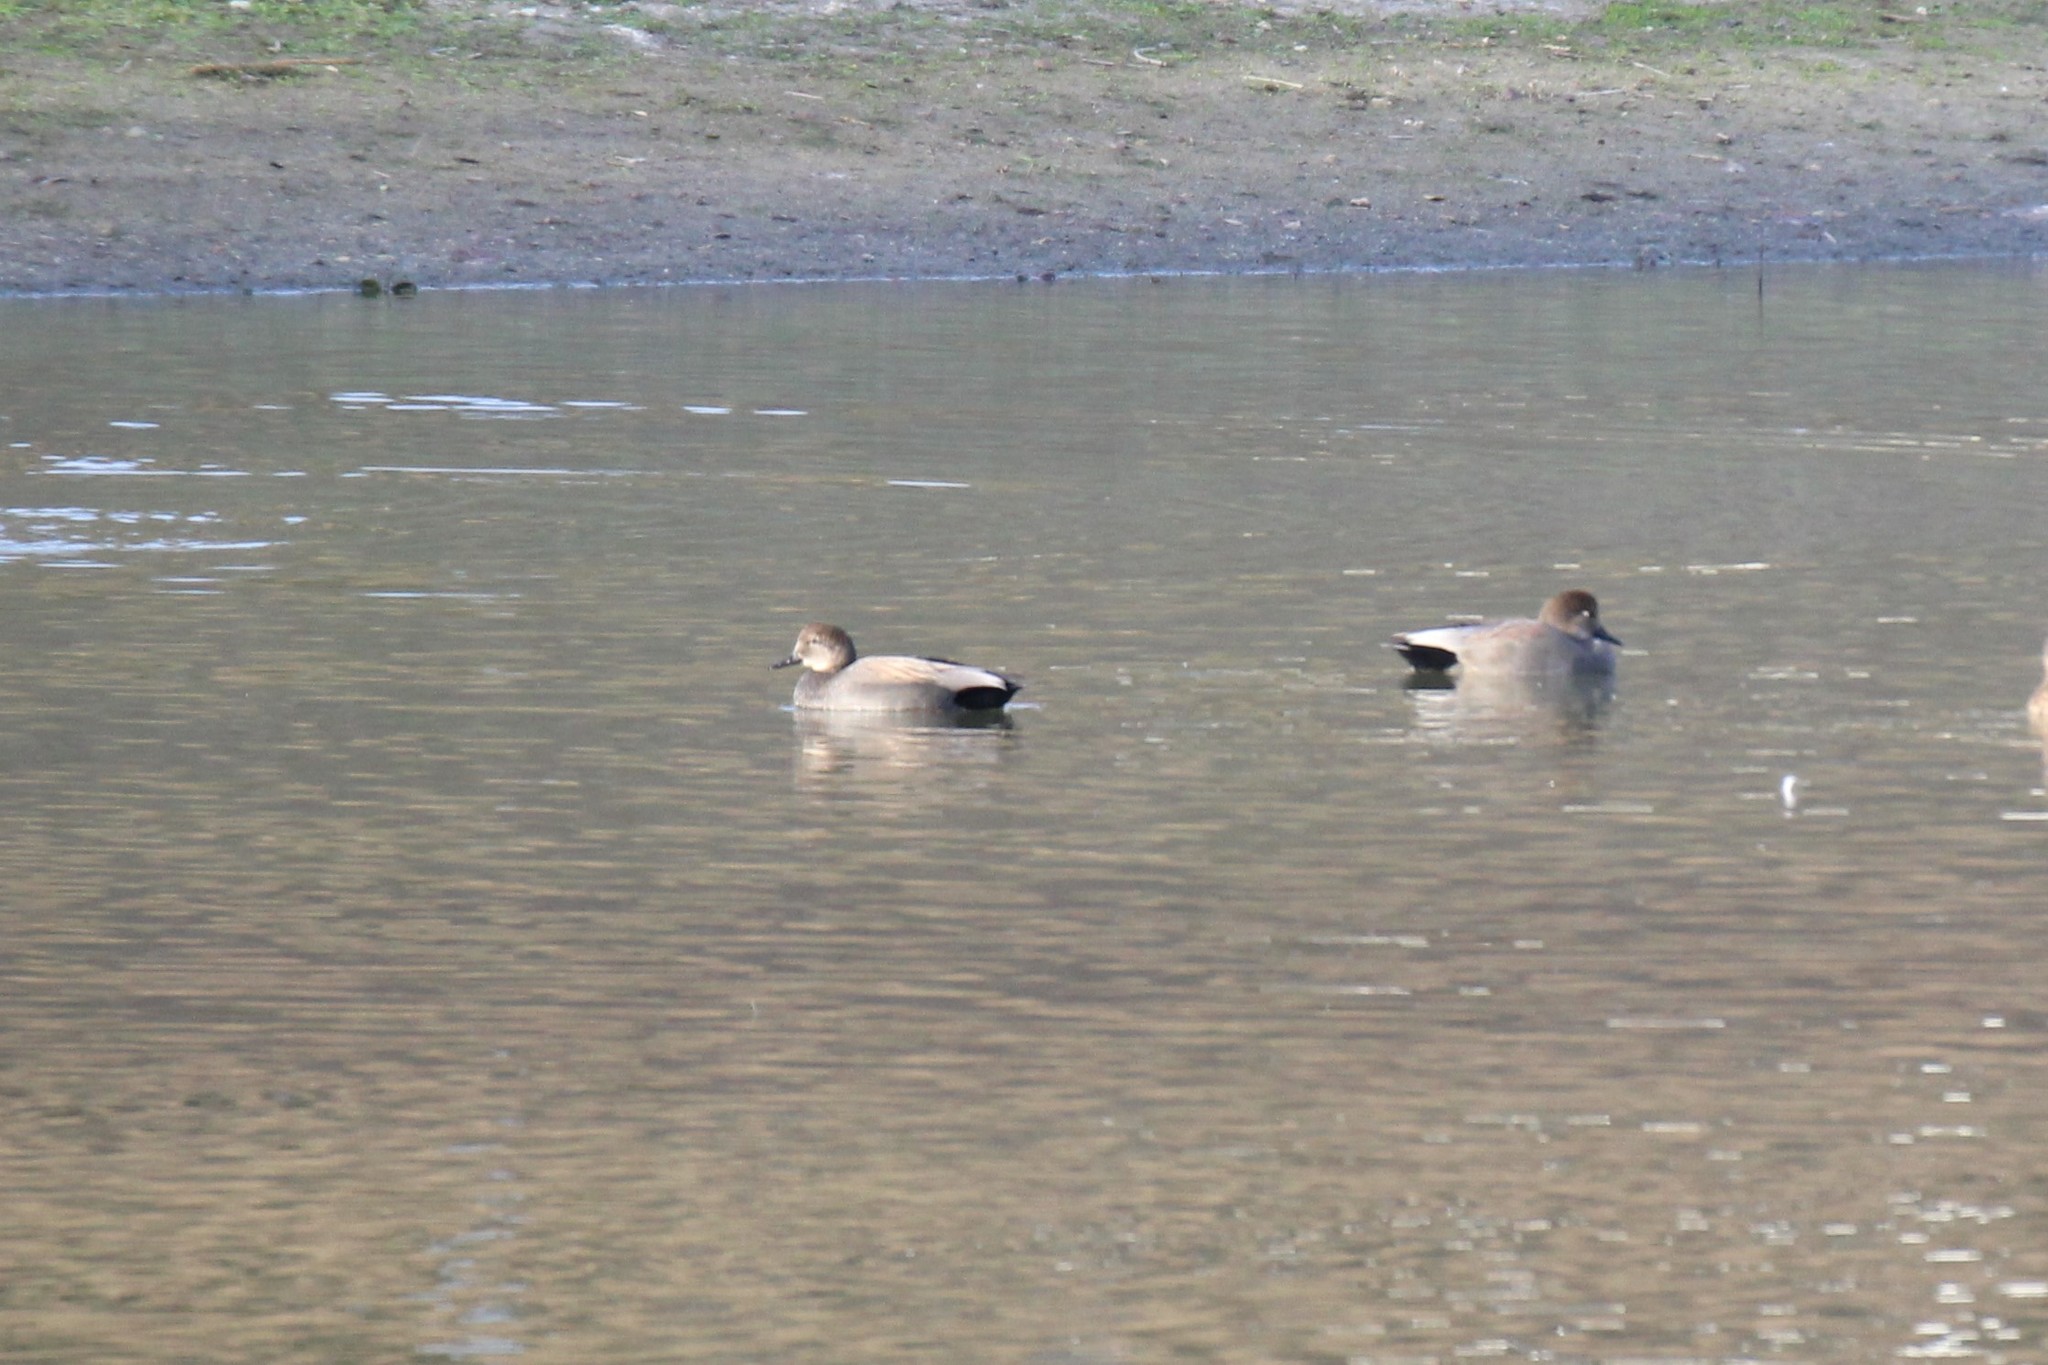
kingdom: Animalia
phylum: Chordata
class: Aves
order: Anseriformes
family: Anatidae
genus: Mareca
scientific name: Mareca strepera
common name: Gadwall
